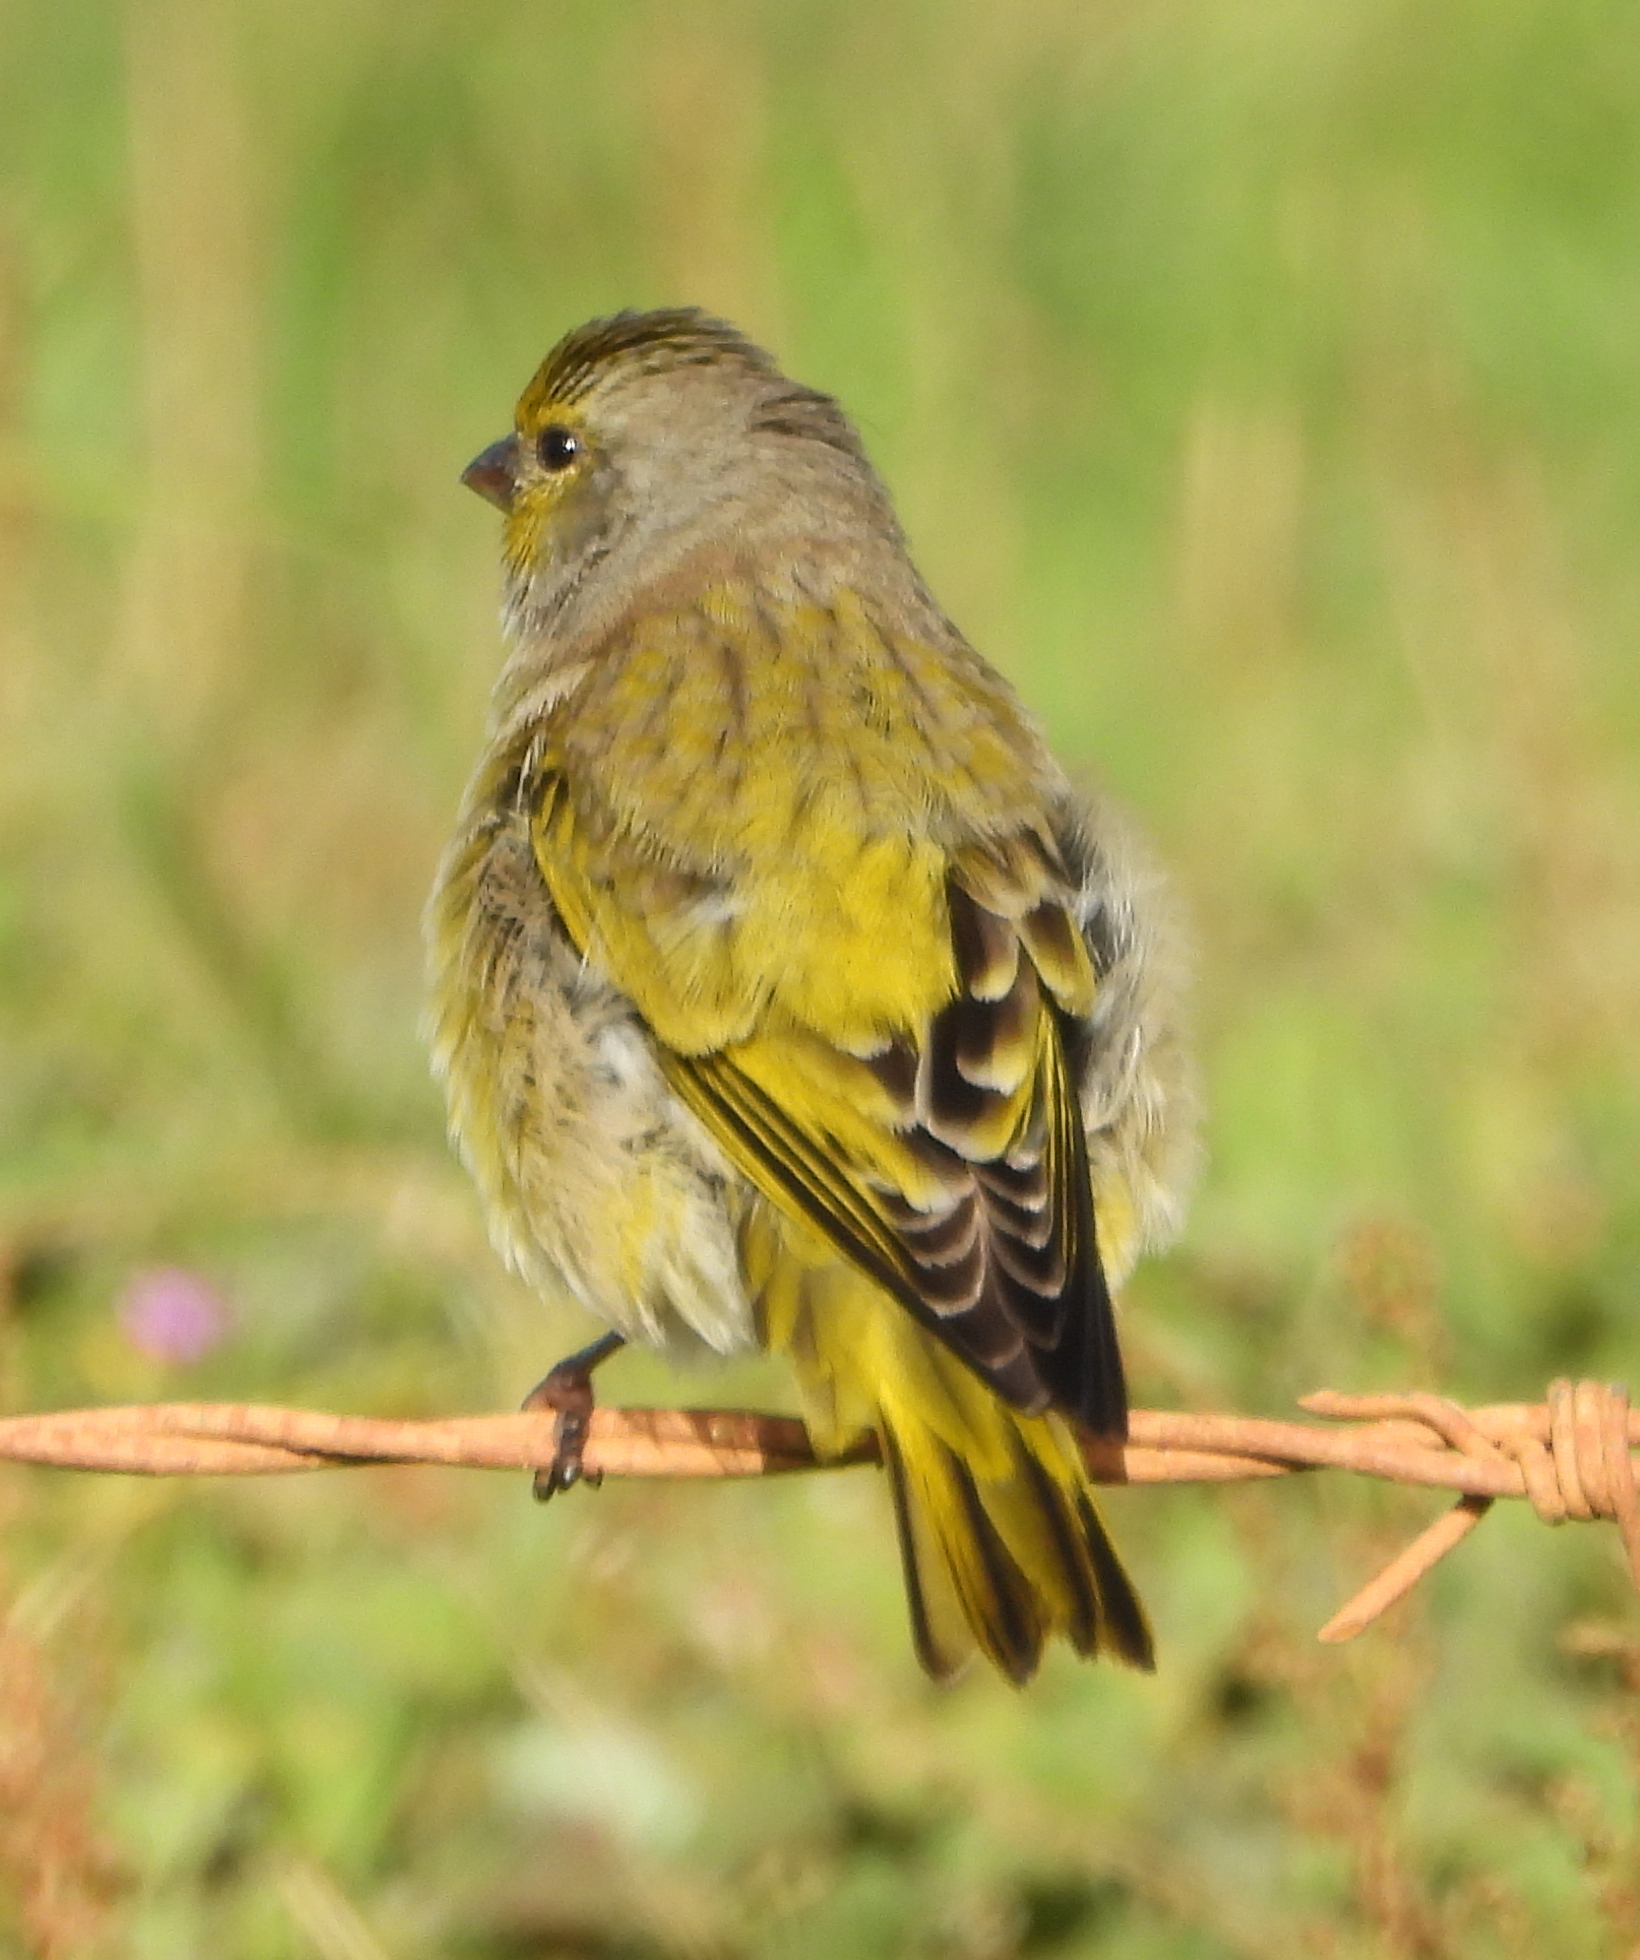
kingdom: Animalia
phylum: Chordata
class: Aves
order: Passeriformes
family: Fringillidae
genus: Serinus
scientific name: Serinus canicollis
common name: Cape canary
